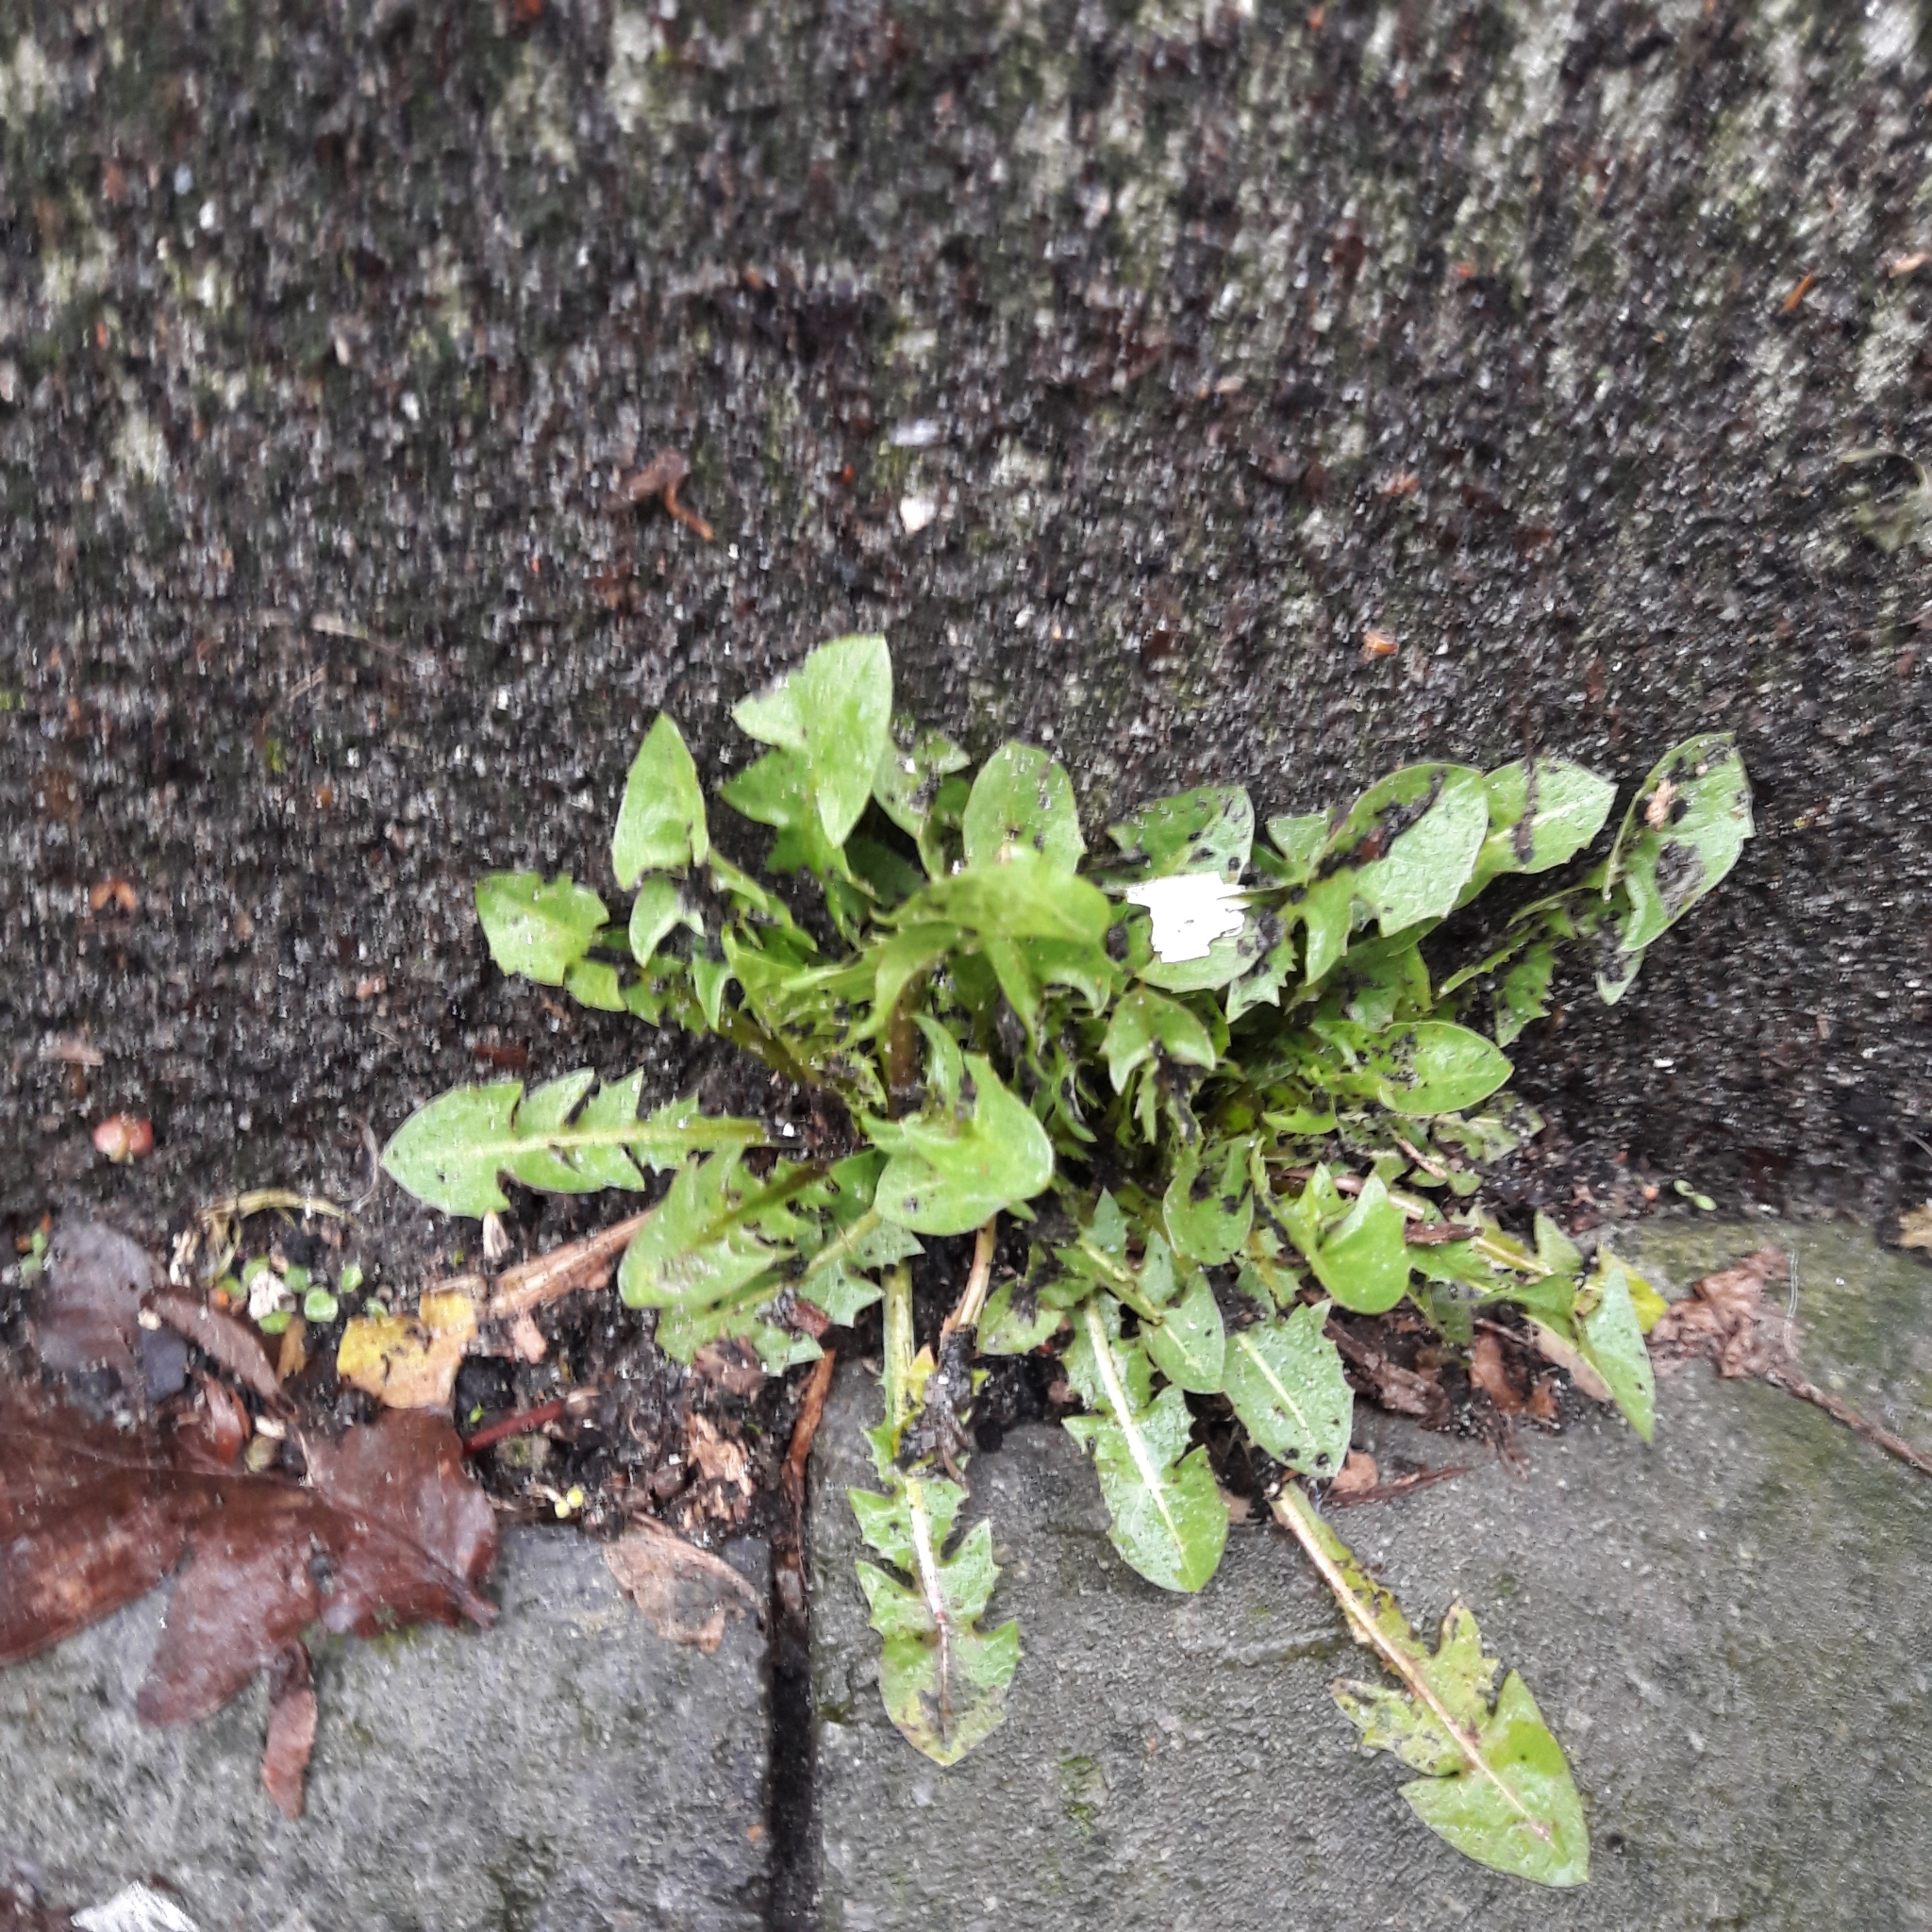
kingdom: Plantae
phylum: Tracheophyta
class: Magnoliopsida
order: Asterales
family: Asteraceae
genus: Taraxacum
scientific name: Taraxacum officinale
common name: Common dandelion
